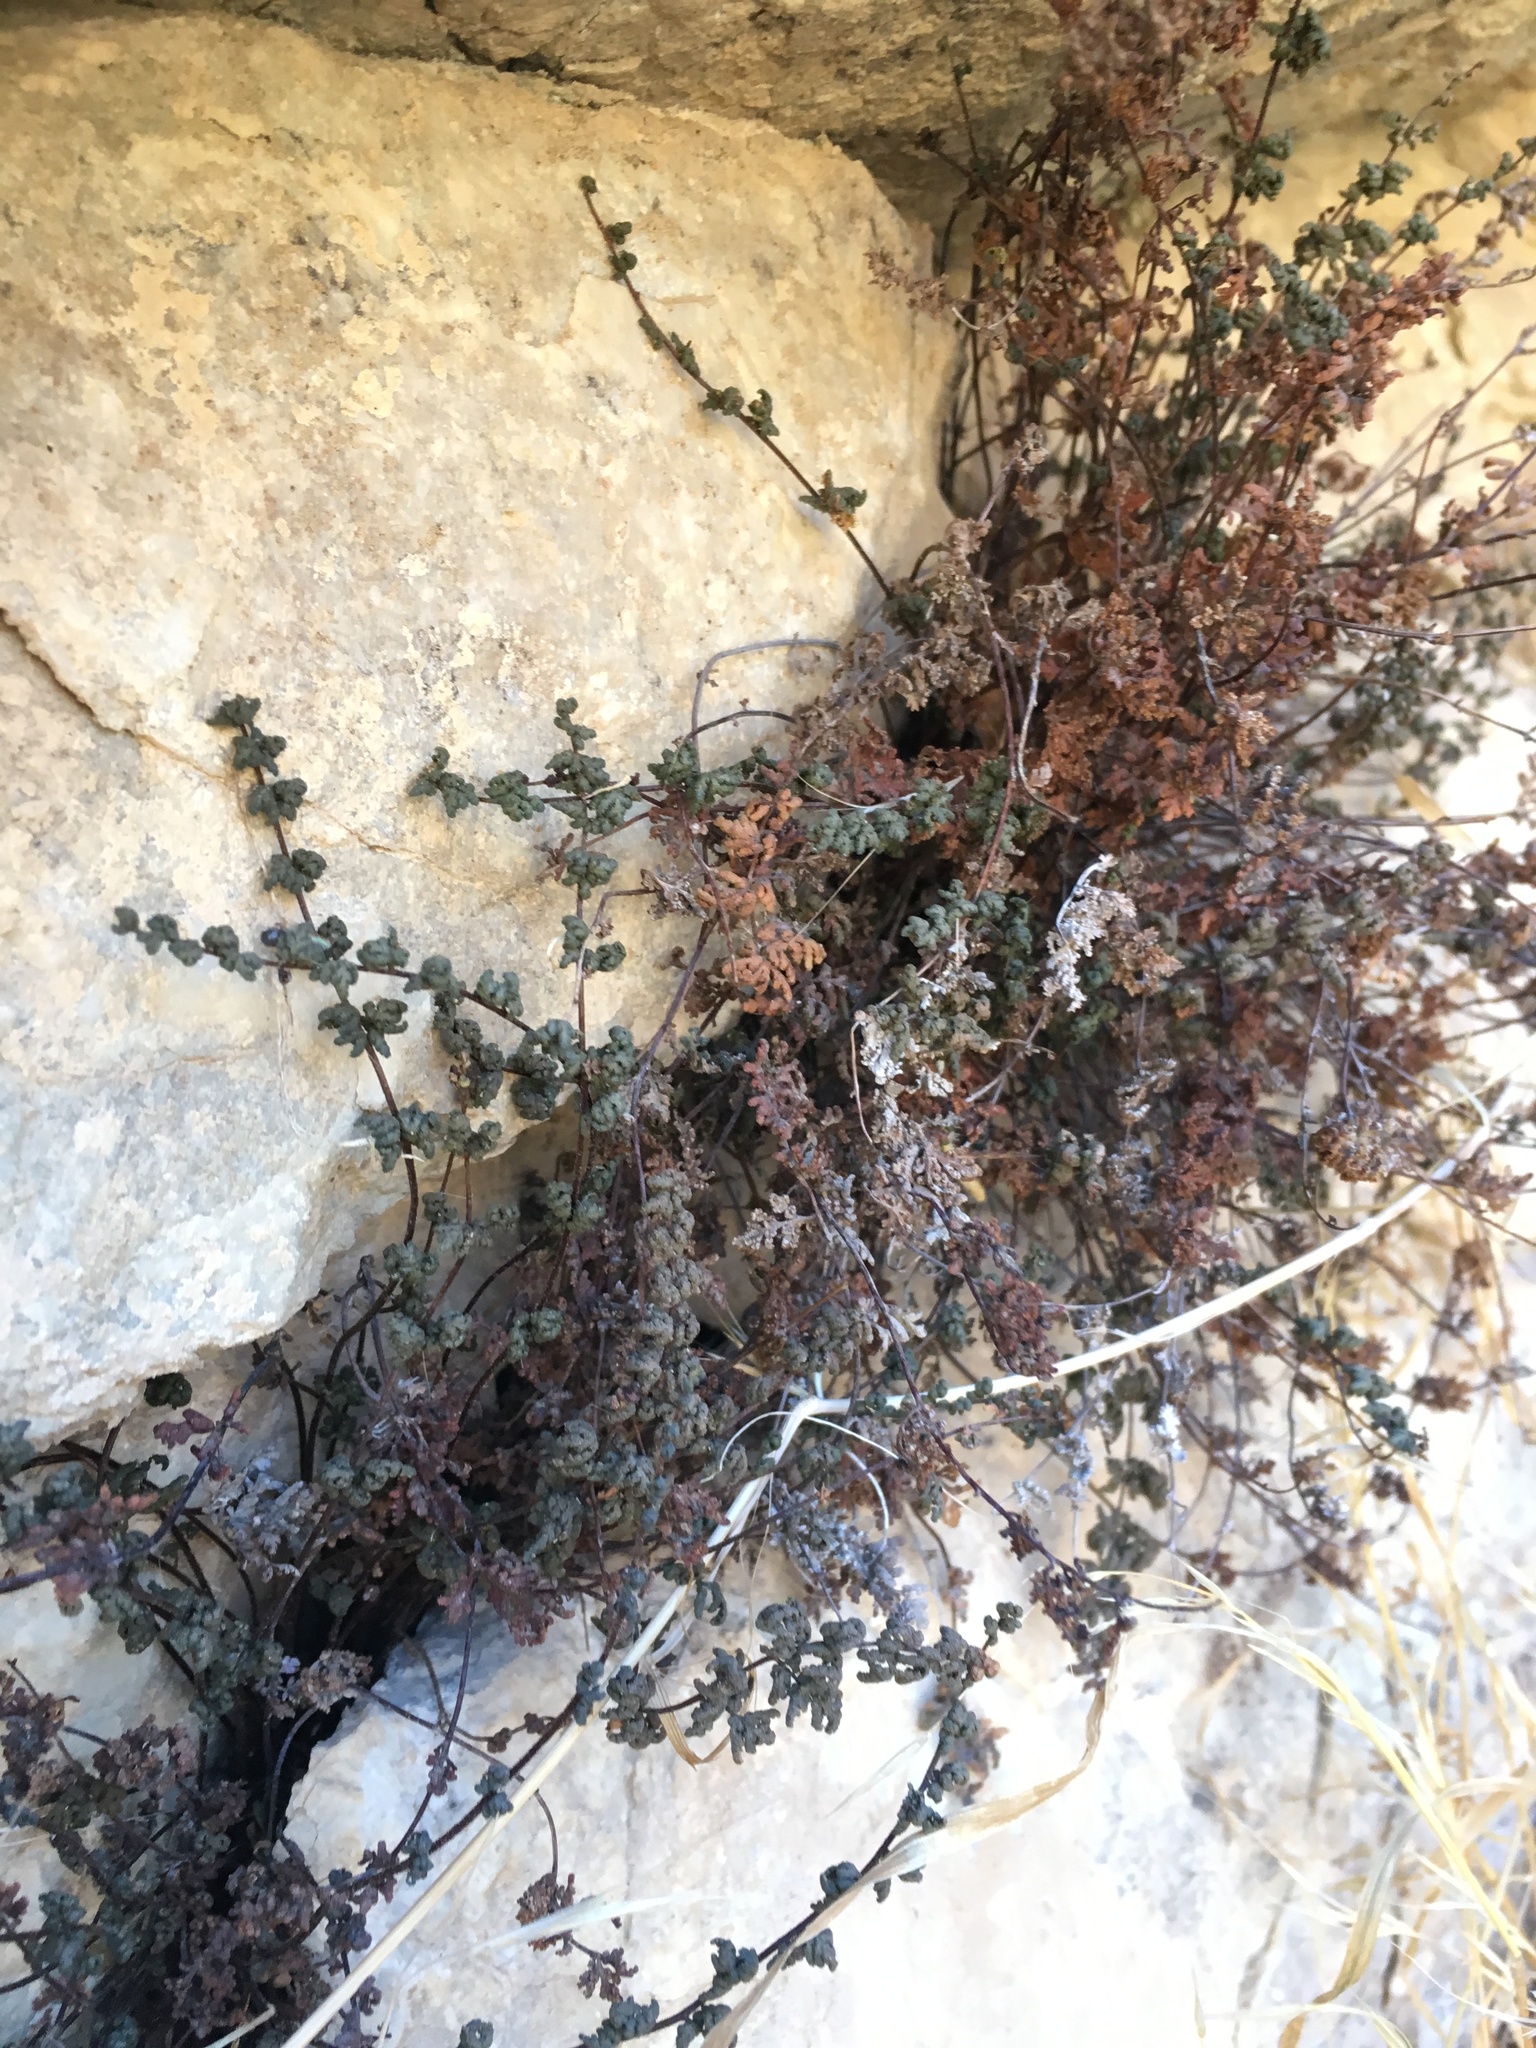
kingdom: Plantae
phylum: Tracheophyta
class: Polypodiopsida
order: Polypodiales
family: Pteridaceae
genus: Myriopteris
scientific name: Myriopteris viscida
